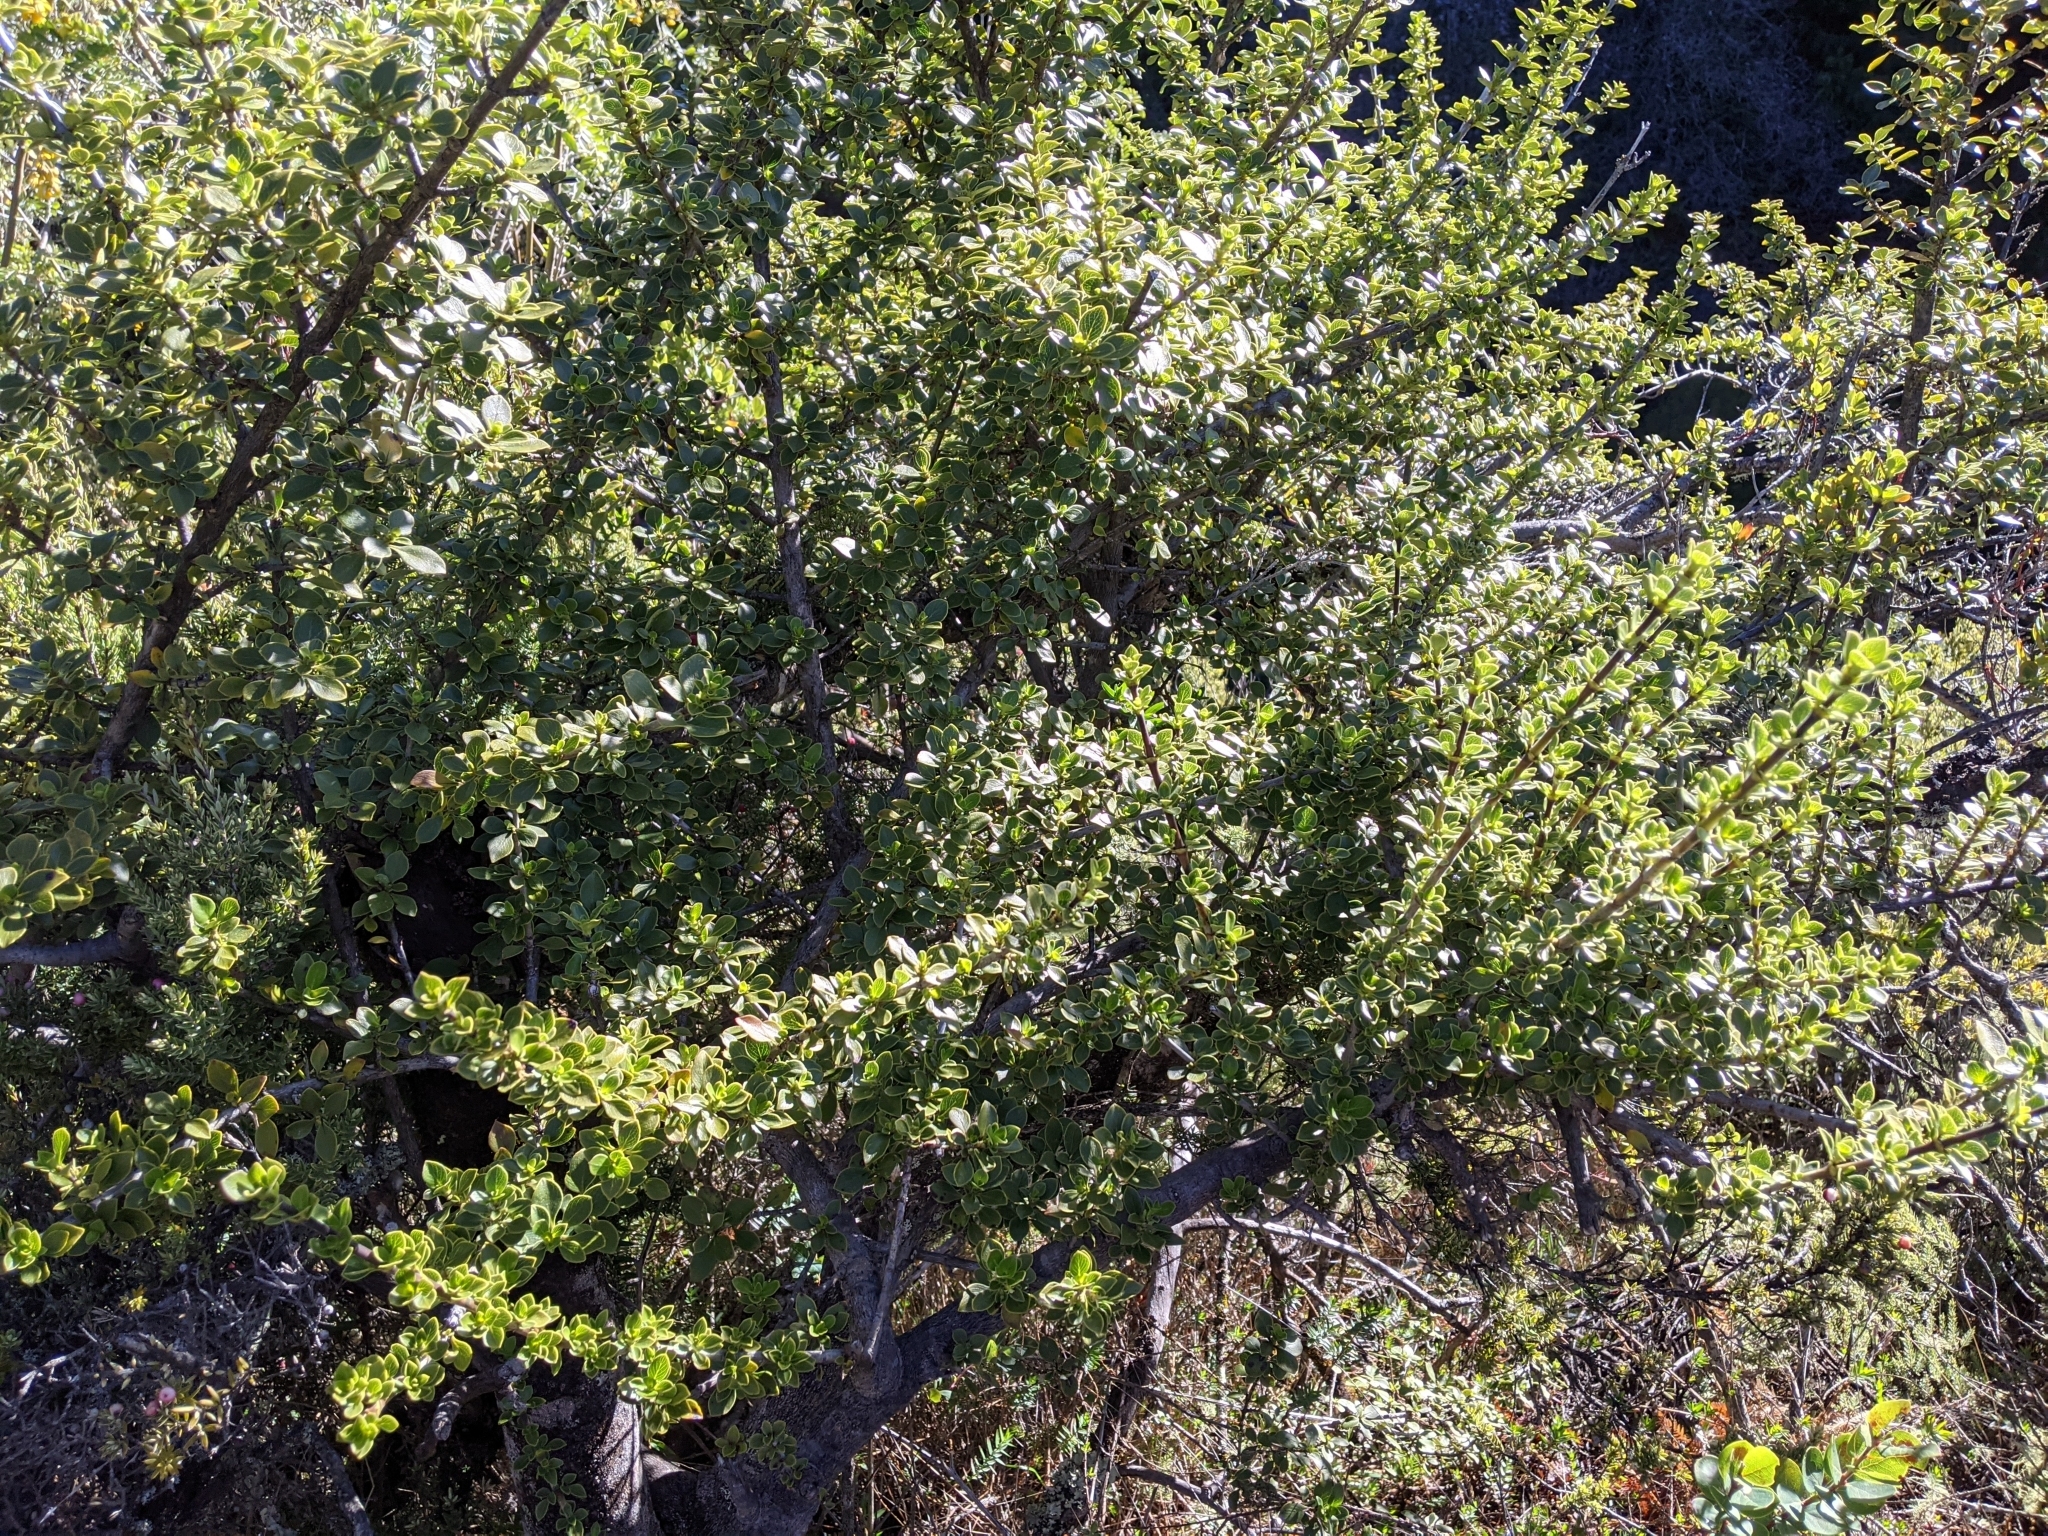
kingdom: Plantae
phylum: Tracheophyta
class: Magnoliopsida
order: Gentianales
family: Rubiaceae
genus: Coprosma
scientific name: Coprosma montana
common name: Alpine mirror plant
